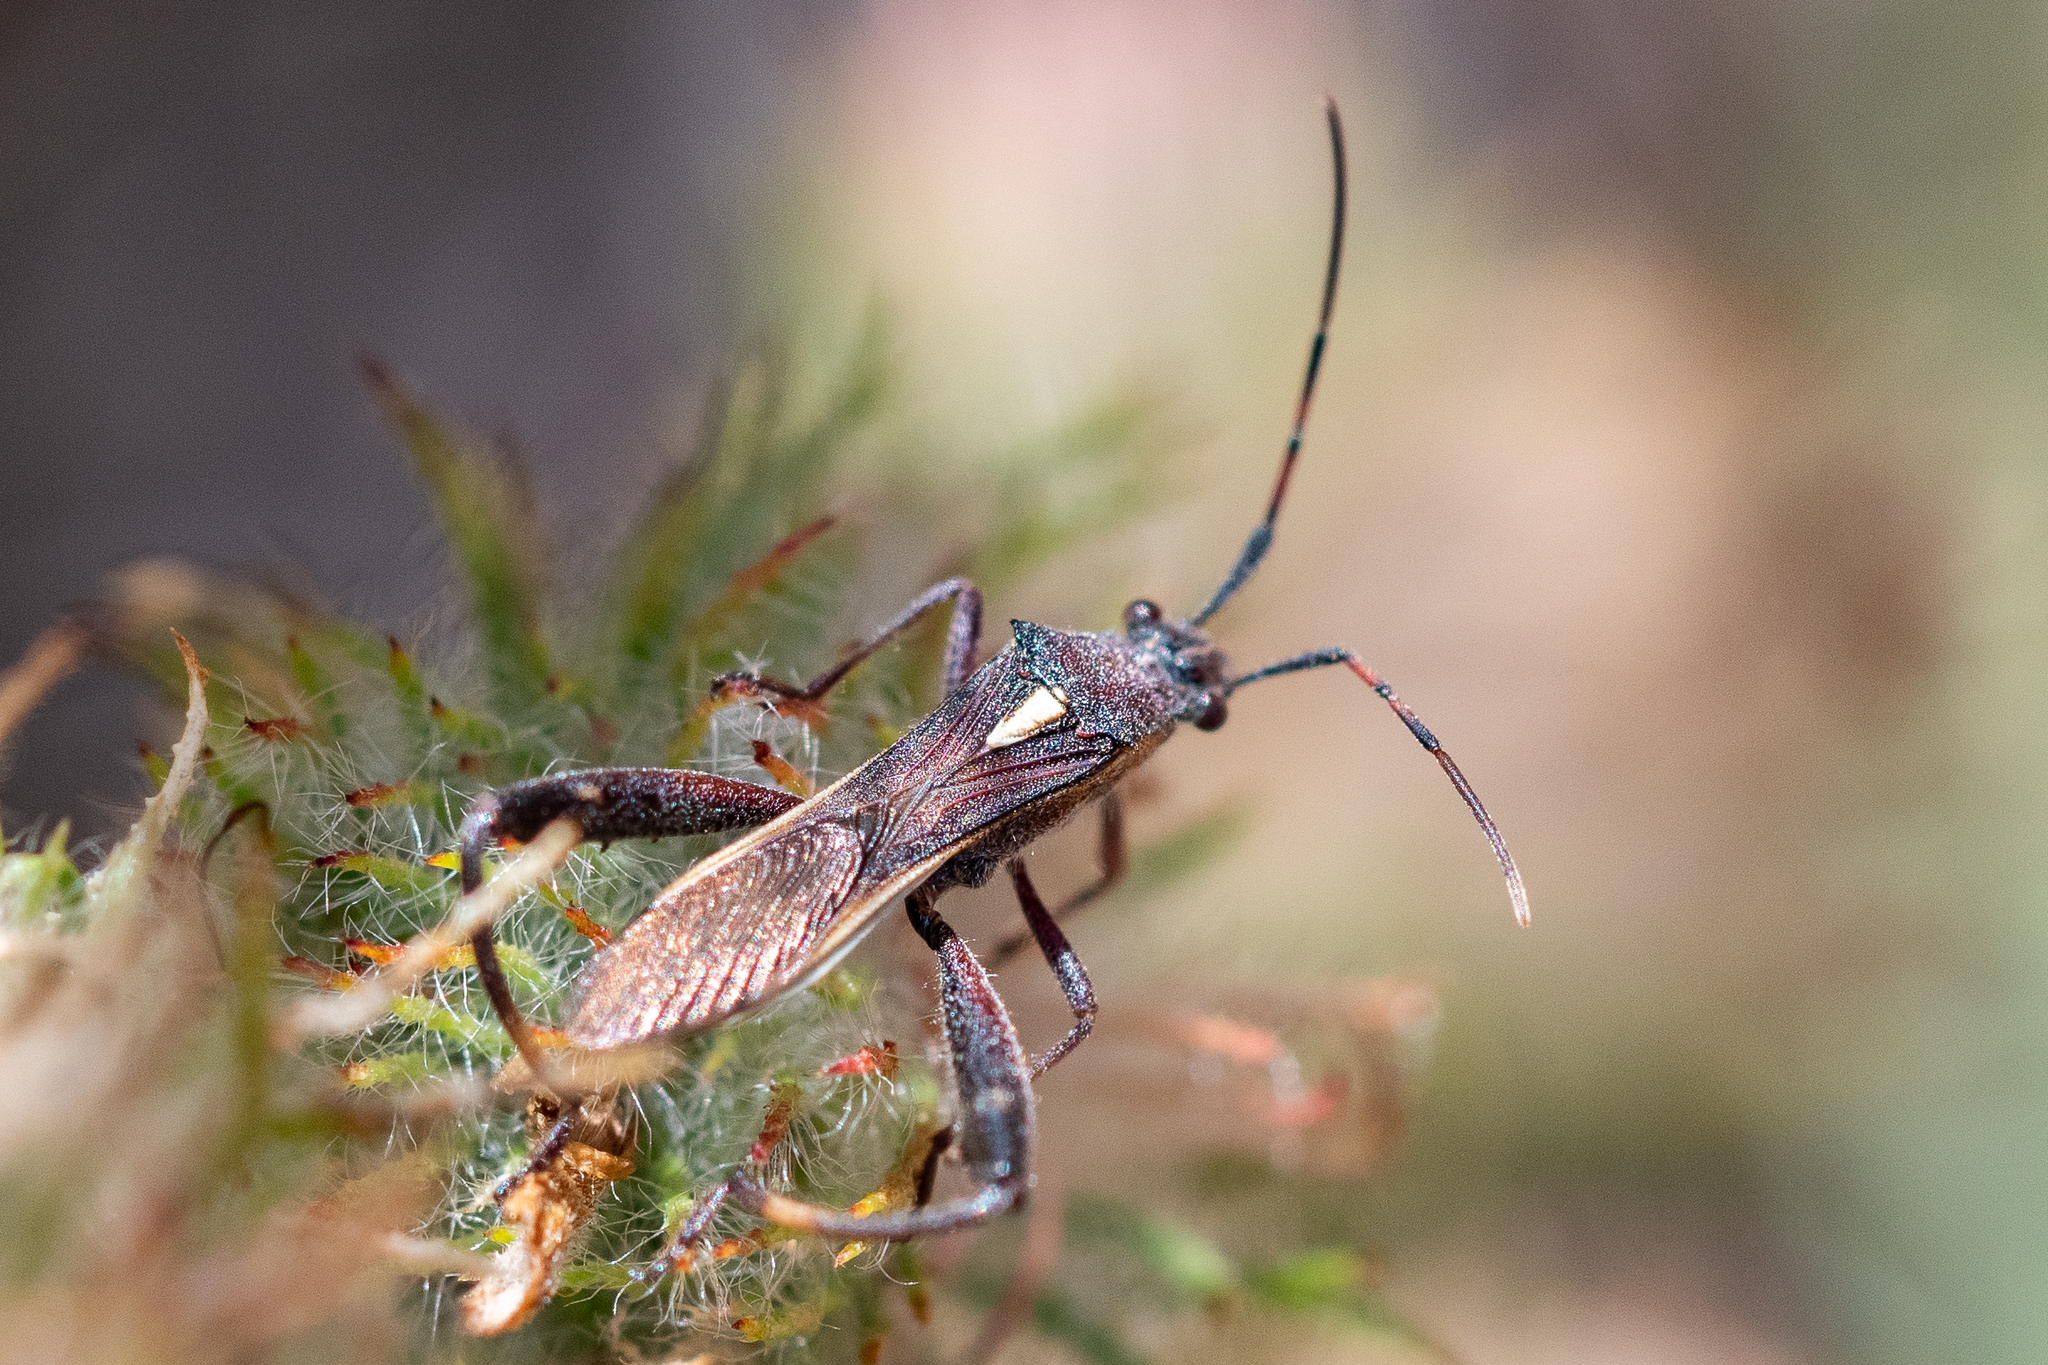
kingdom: Animalia
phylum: Arthropoda
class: Insecta
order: Hemiptera
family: Alydidae
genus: Mirperus
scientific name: Mirperus jaculus
